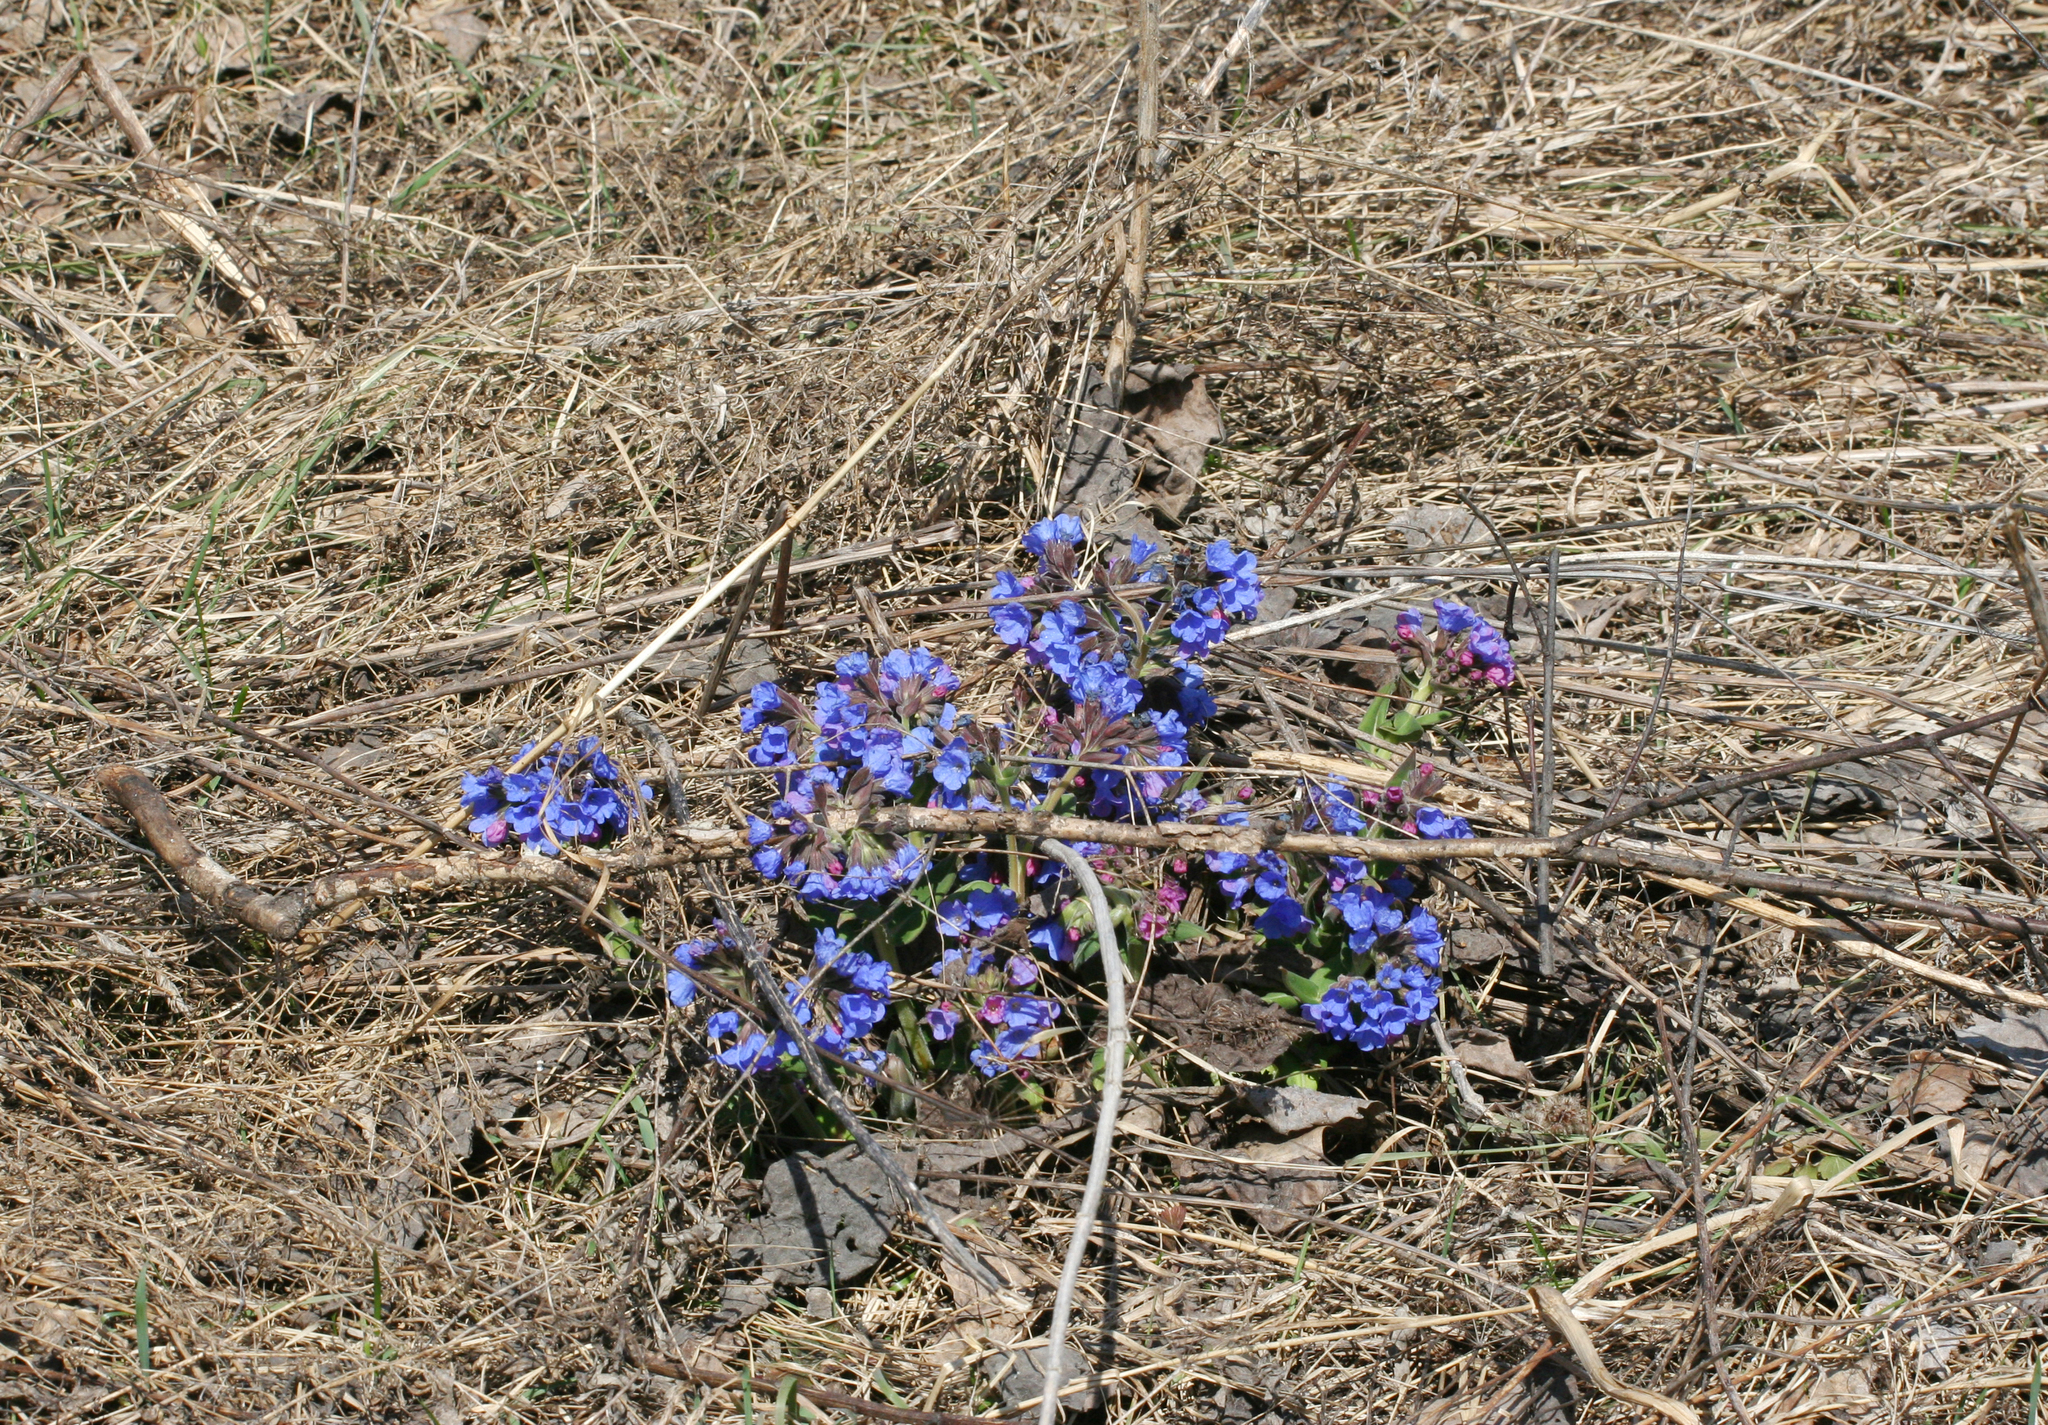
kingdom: Plantae
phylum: Tracheophyta
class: Magnoliopsida
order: Boraginales
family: Boraginaceae
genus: Pulmonaria
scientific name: Pulmonaria mollis
